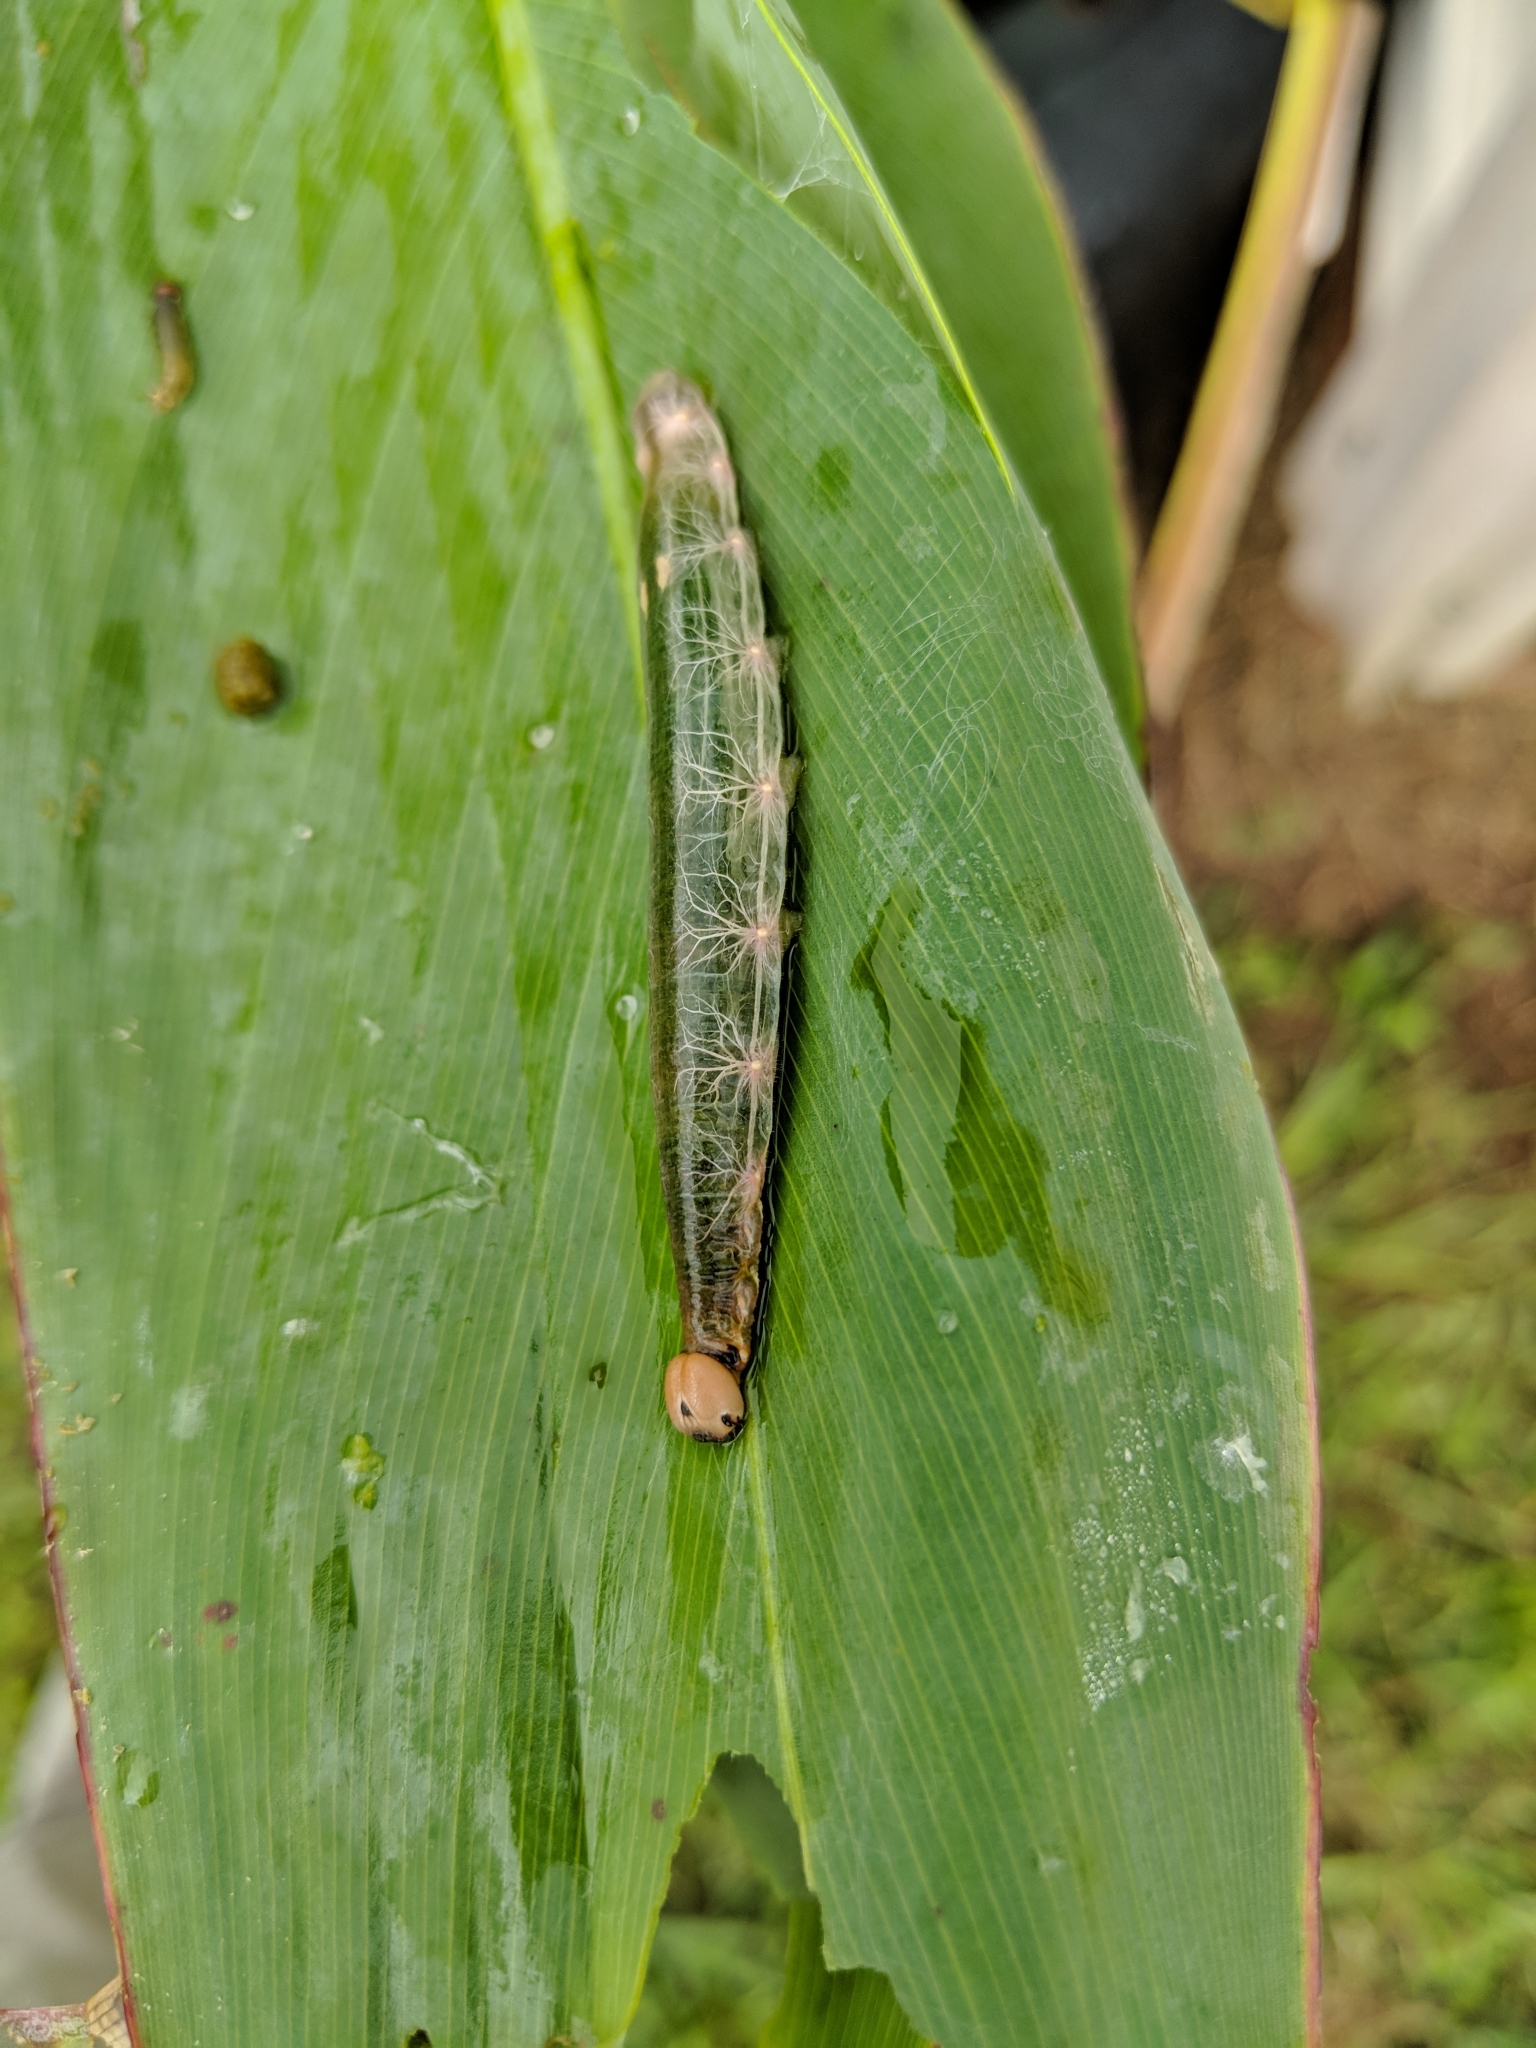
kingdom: Animalia
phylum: Arthropoda
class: Insecta
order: Lepidoptera
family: Hesperiidae
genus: Calpodes
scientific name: Calpodes ethlius
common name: Brazilian skipper
